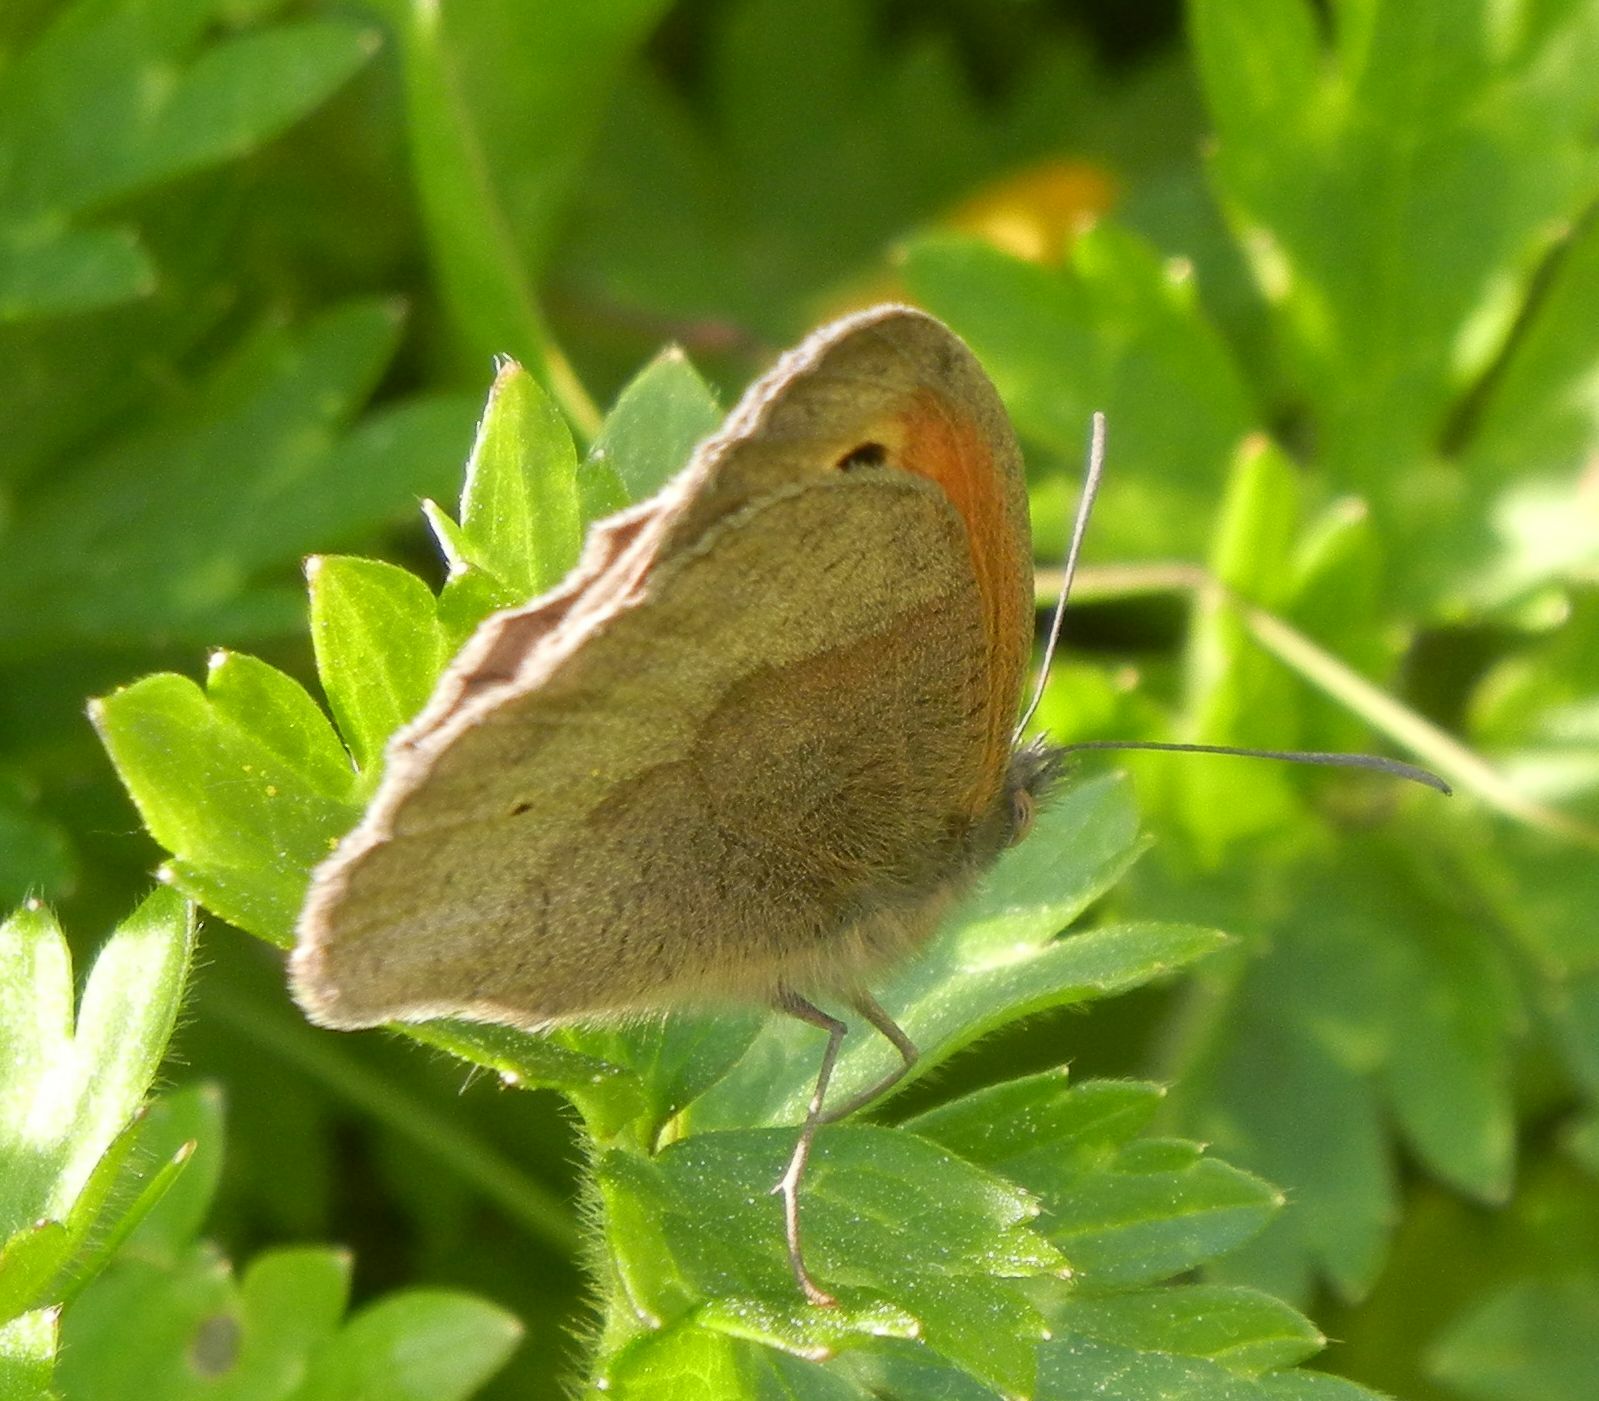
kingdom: Animalia
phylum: Arthropoda
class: Insecta
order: Lepidoptera
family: Nymphalidae
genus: Maniola
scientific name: Maniola jurtina
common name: Meadow brown
